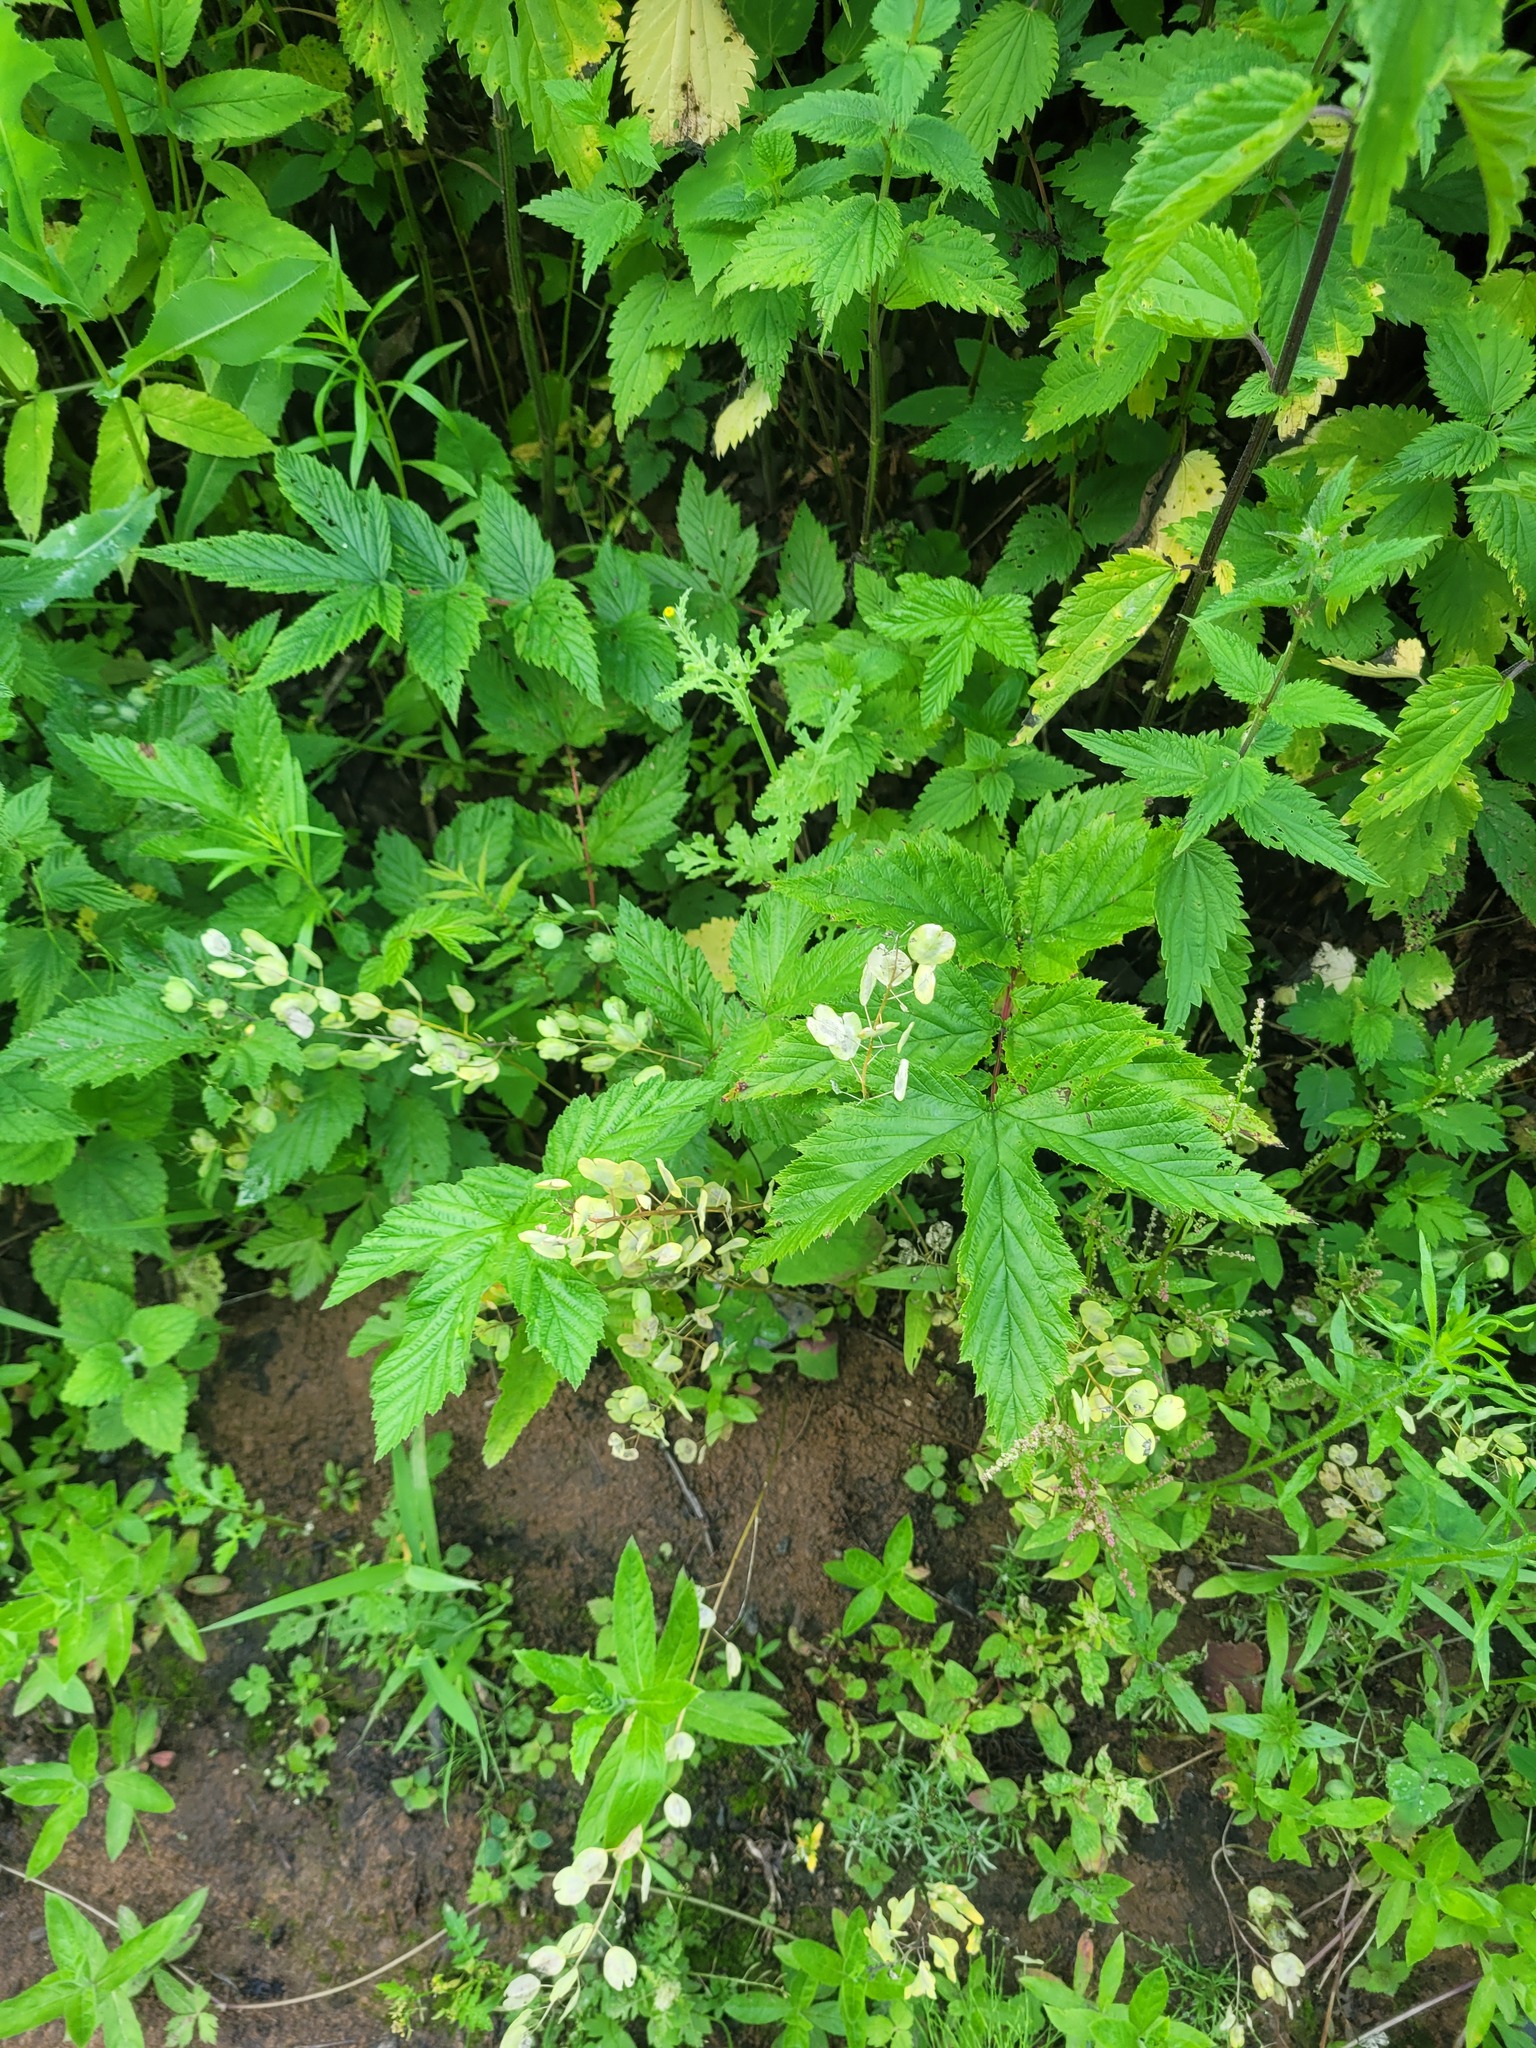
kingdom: Plantae
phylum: Tracheophyta
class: Magnoliopsida
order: Brassicales
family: Brassicaceae
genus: Thlaspi
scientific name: Thlaspi arvense
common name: Field pennycress
